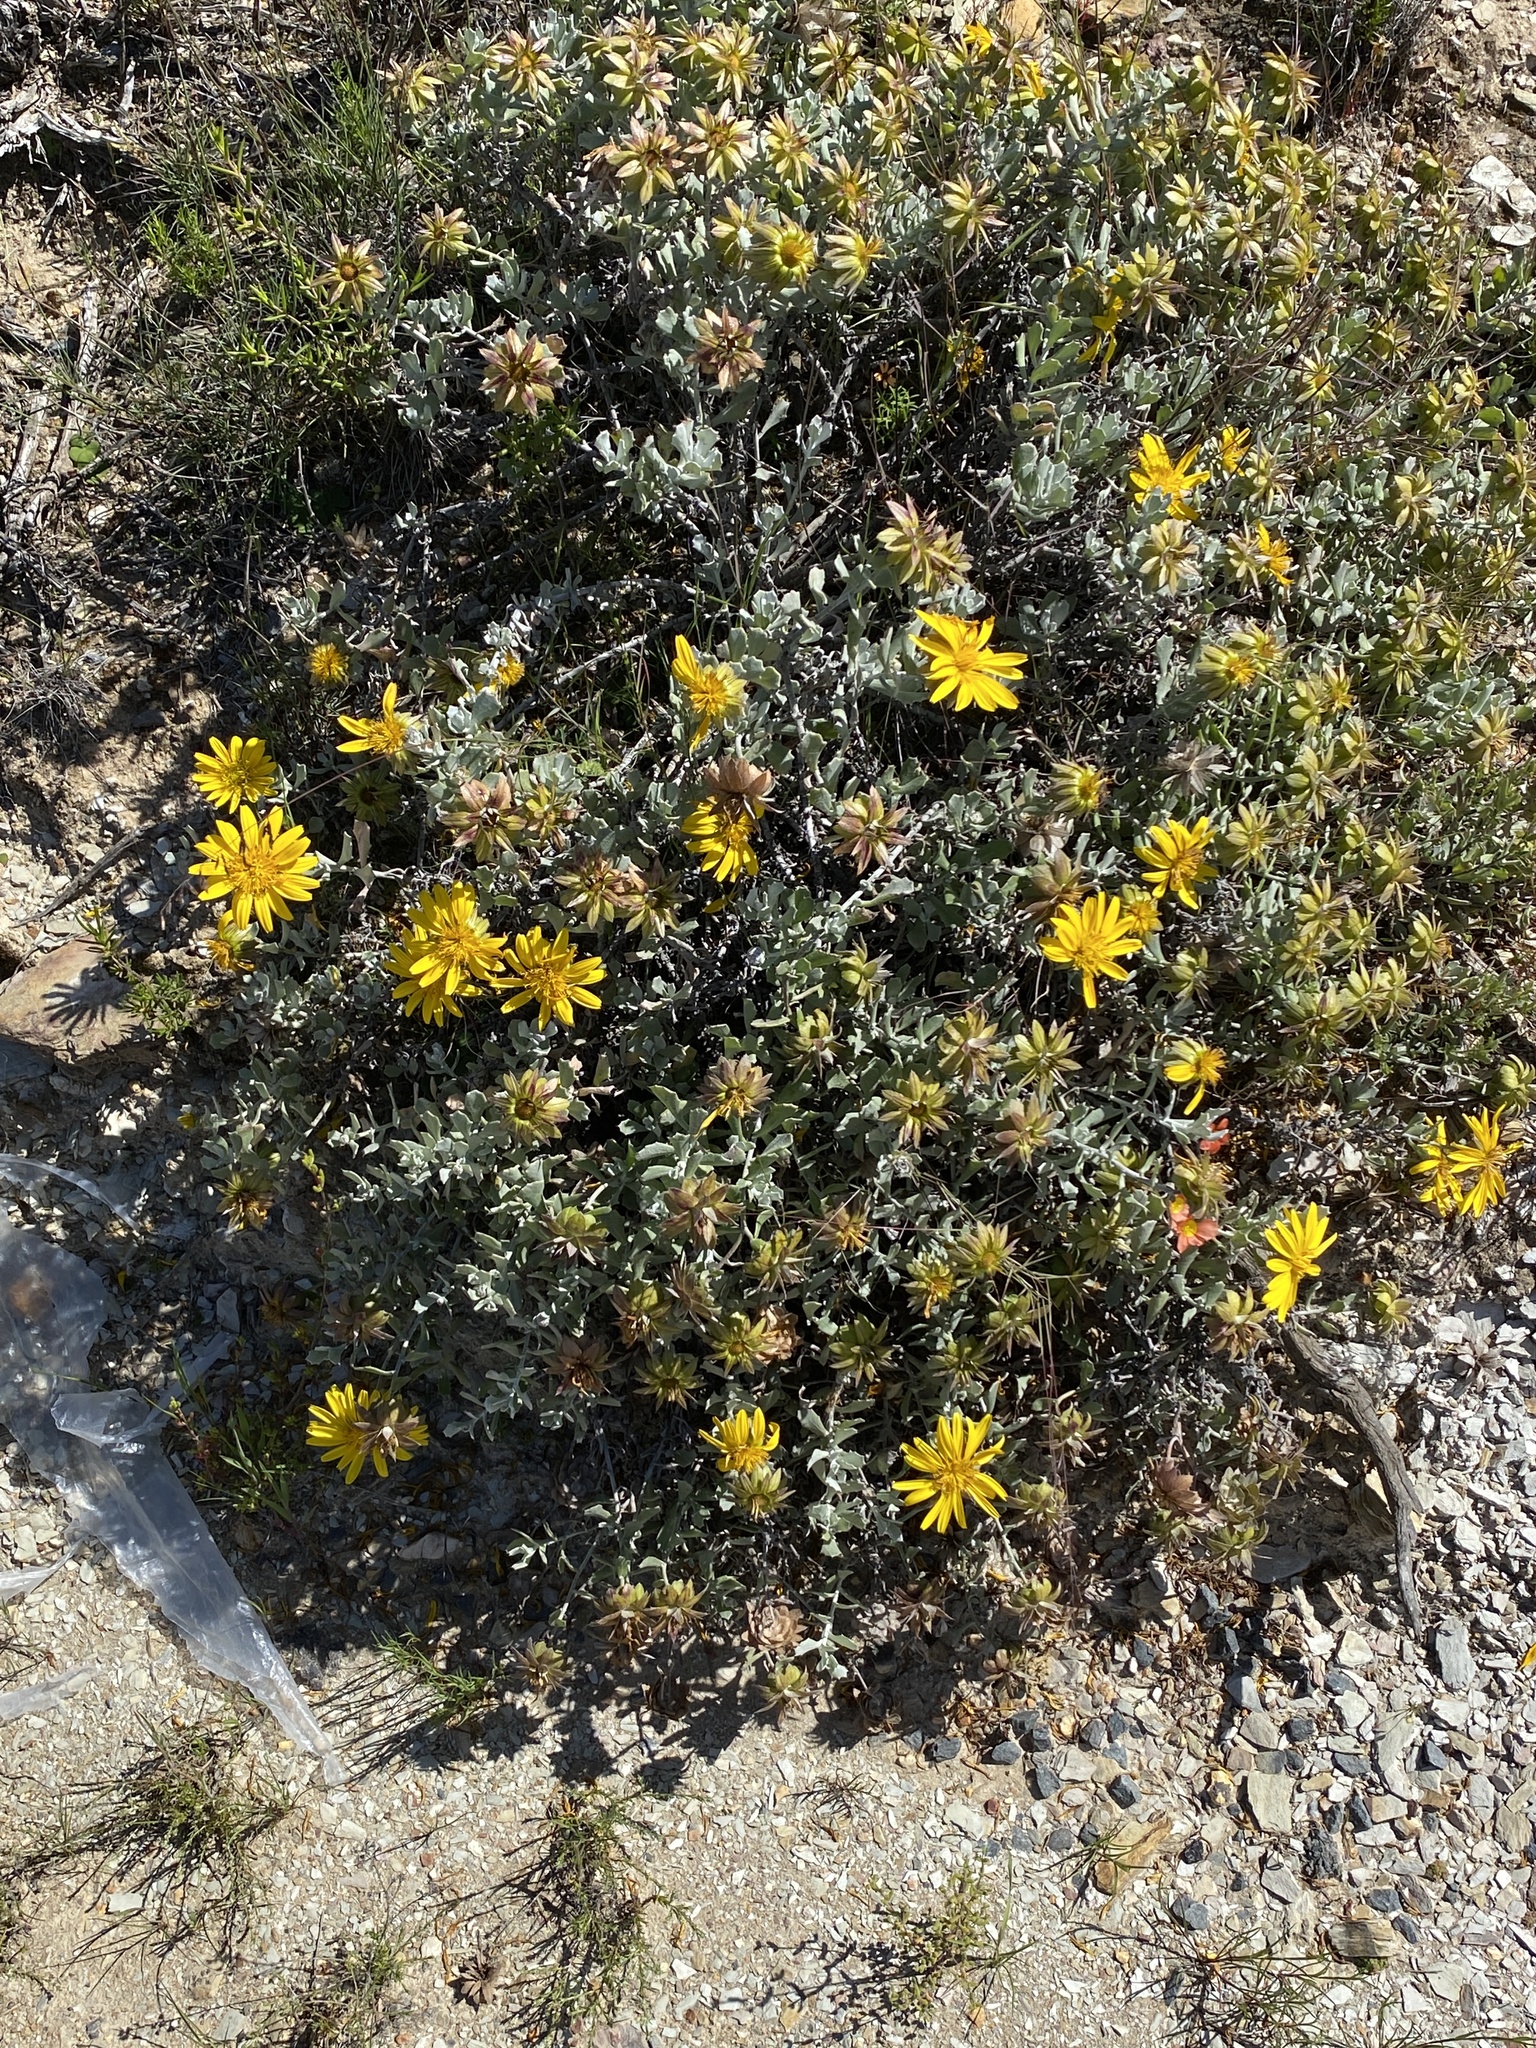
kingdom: Plantae
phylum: Tracheophyta
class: Magnoliopsida
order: Asterales
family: Asteraceae
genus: Berkheya
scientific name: Berkheya cuneata
